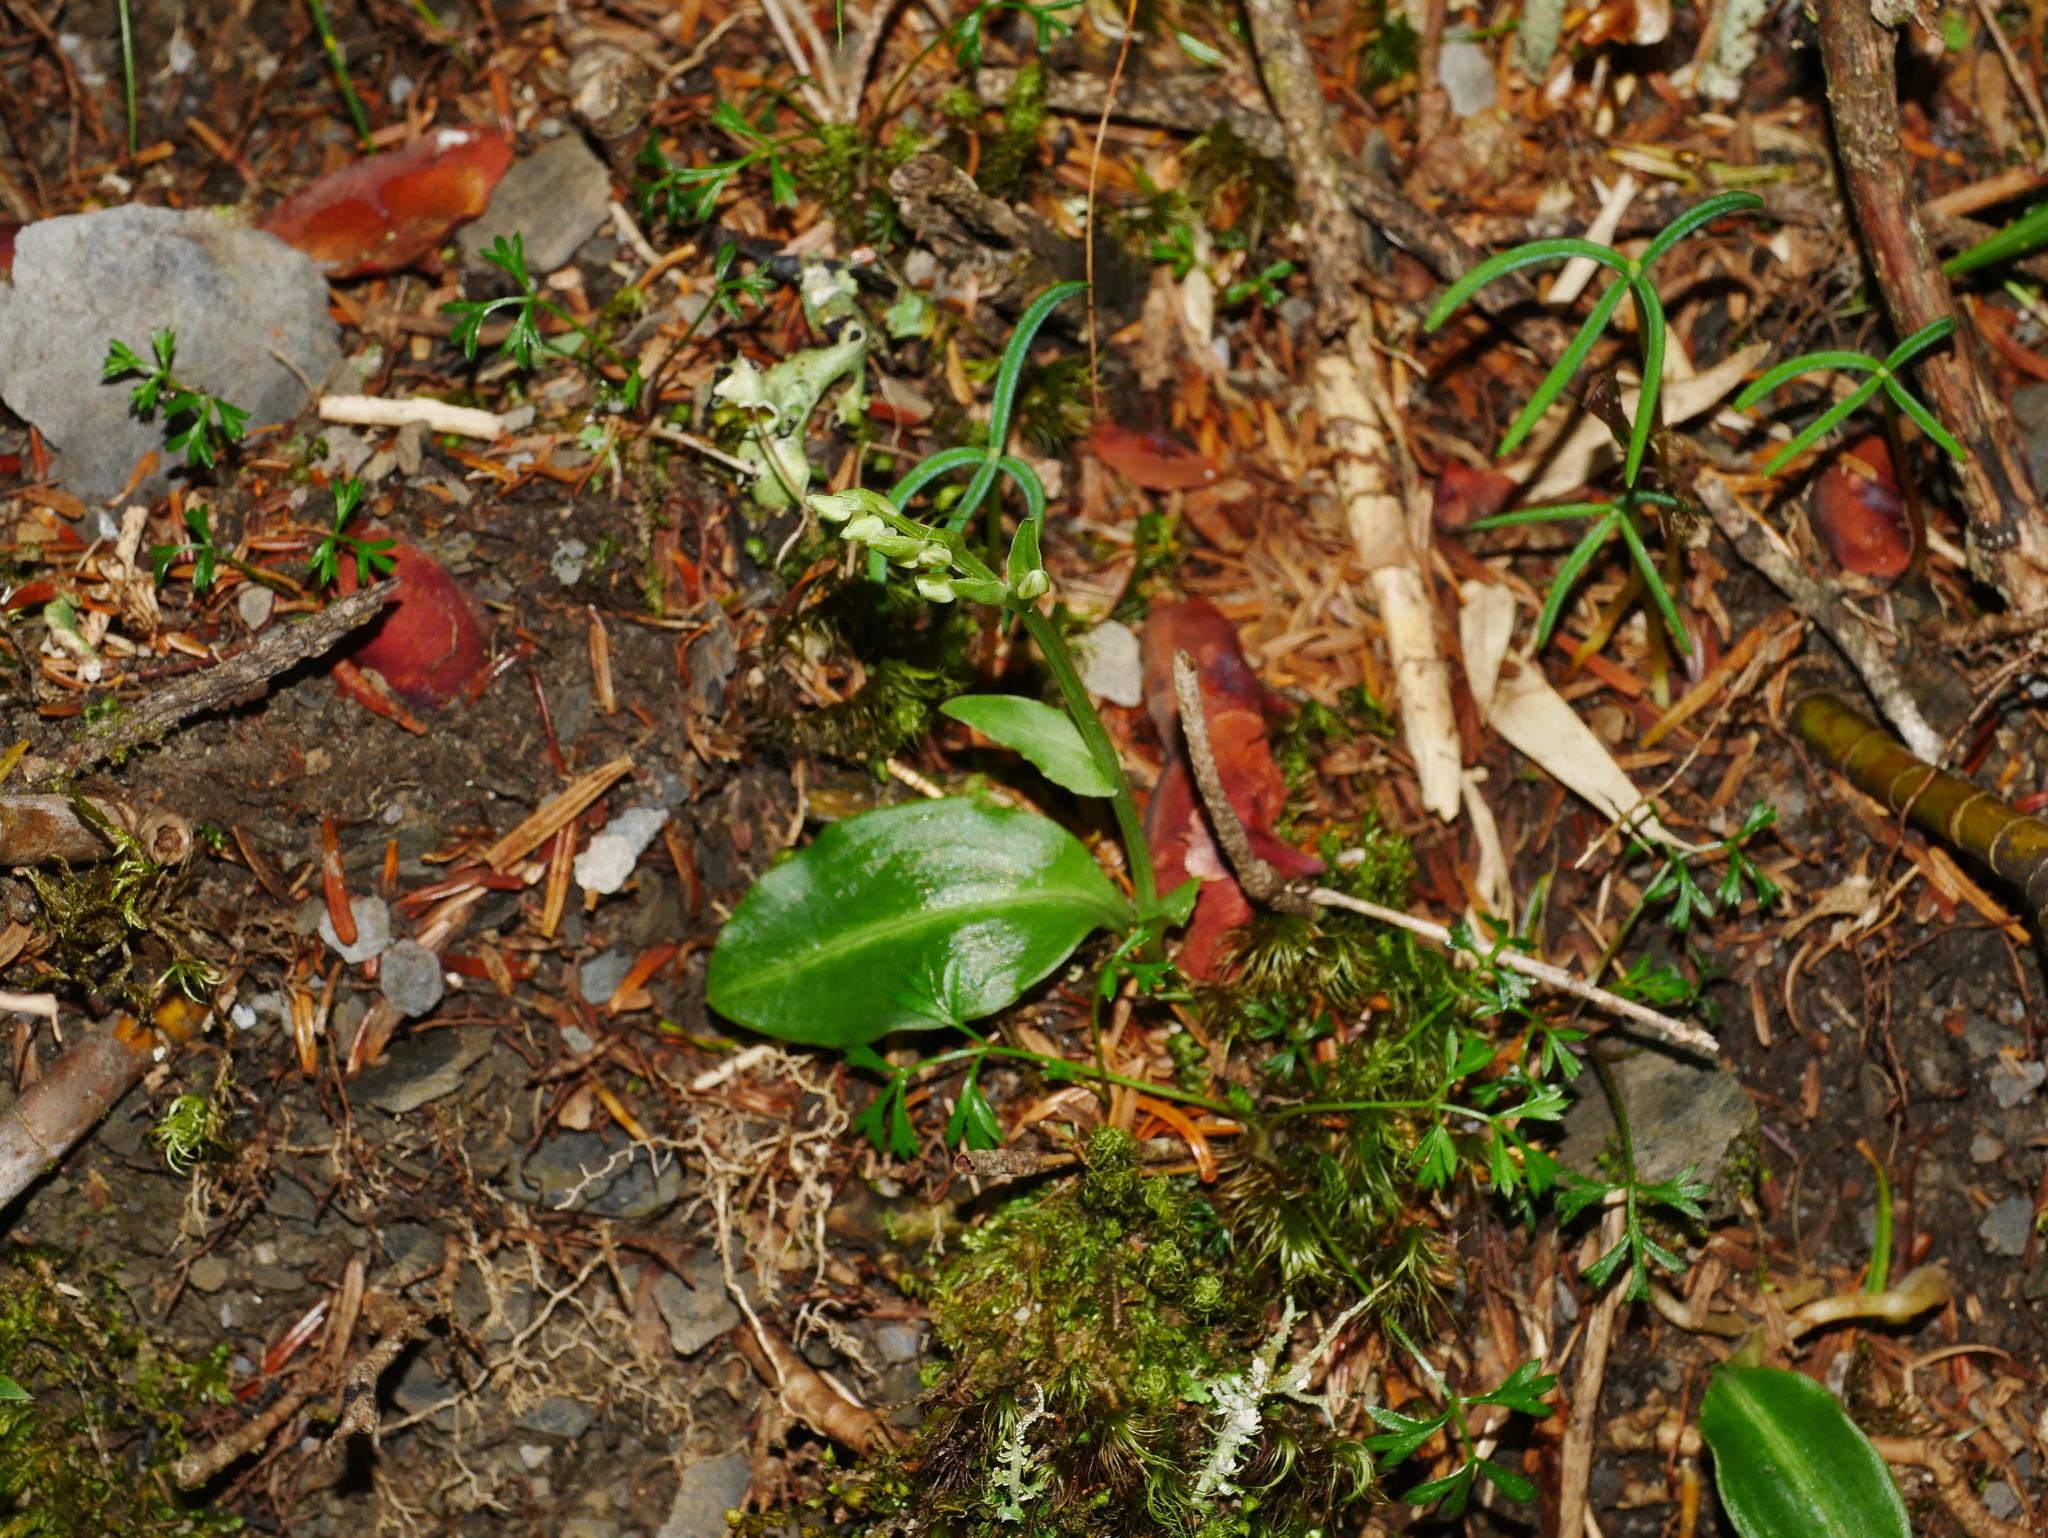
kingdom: Plantae
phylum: Tracheophyta
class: Liliopsida
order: Asparagales
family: Orchidaceae
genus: Platanthera
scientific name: Platanthera brevicalcarata
